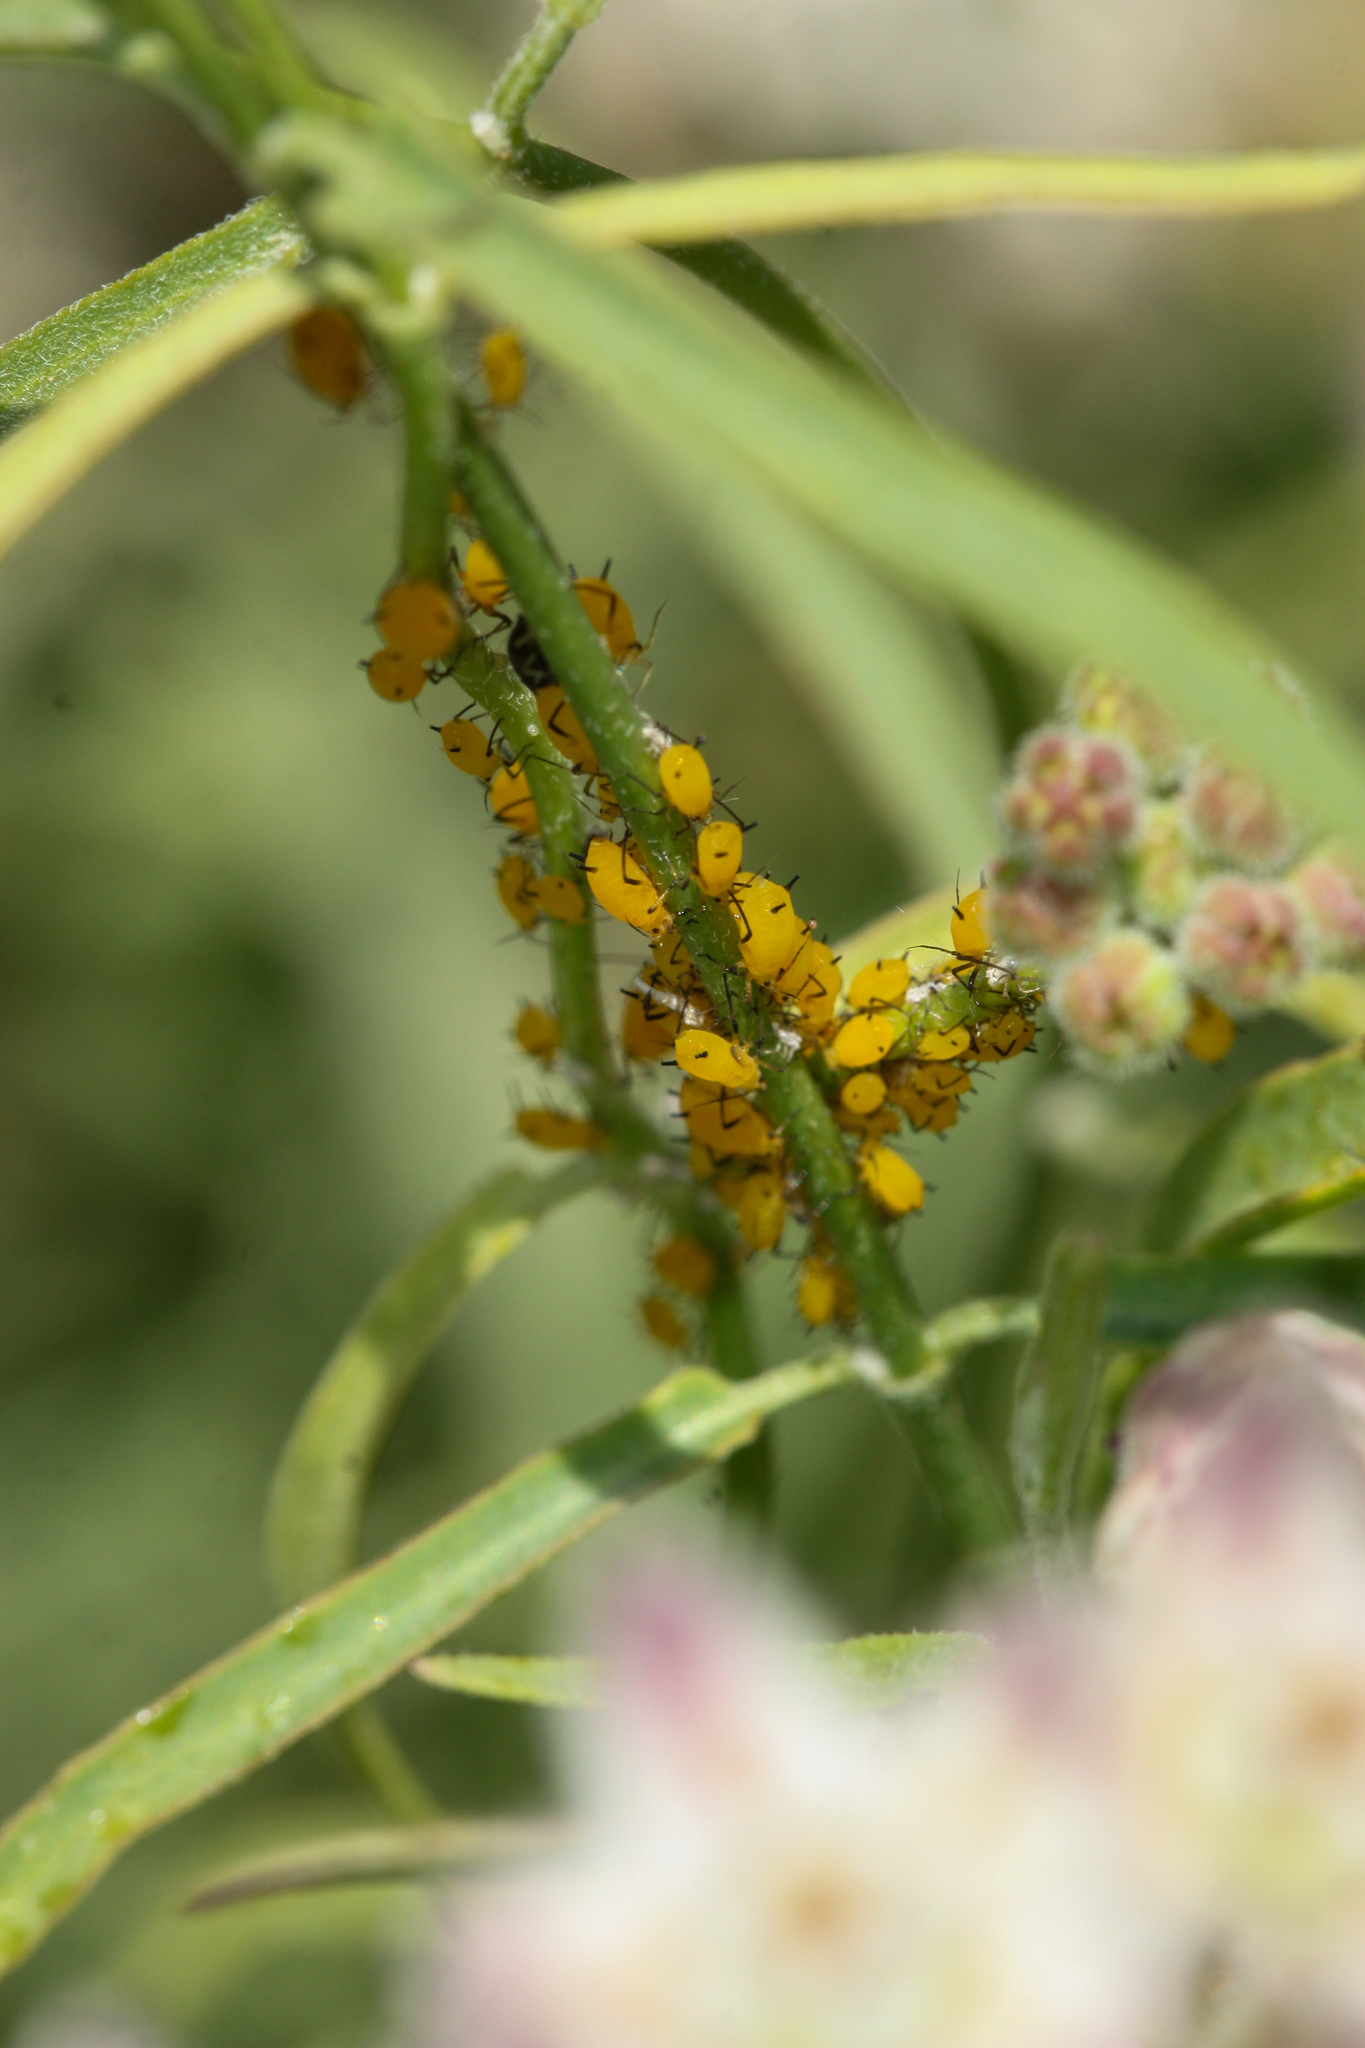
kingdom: Animalia
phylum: Arthropoda
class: Insecta
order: Hemiptera
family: Aphididae
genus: Aphis
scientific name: Aphis nerii
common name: Oleander aphid
